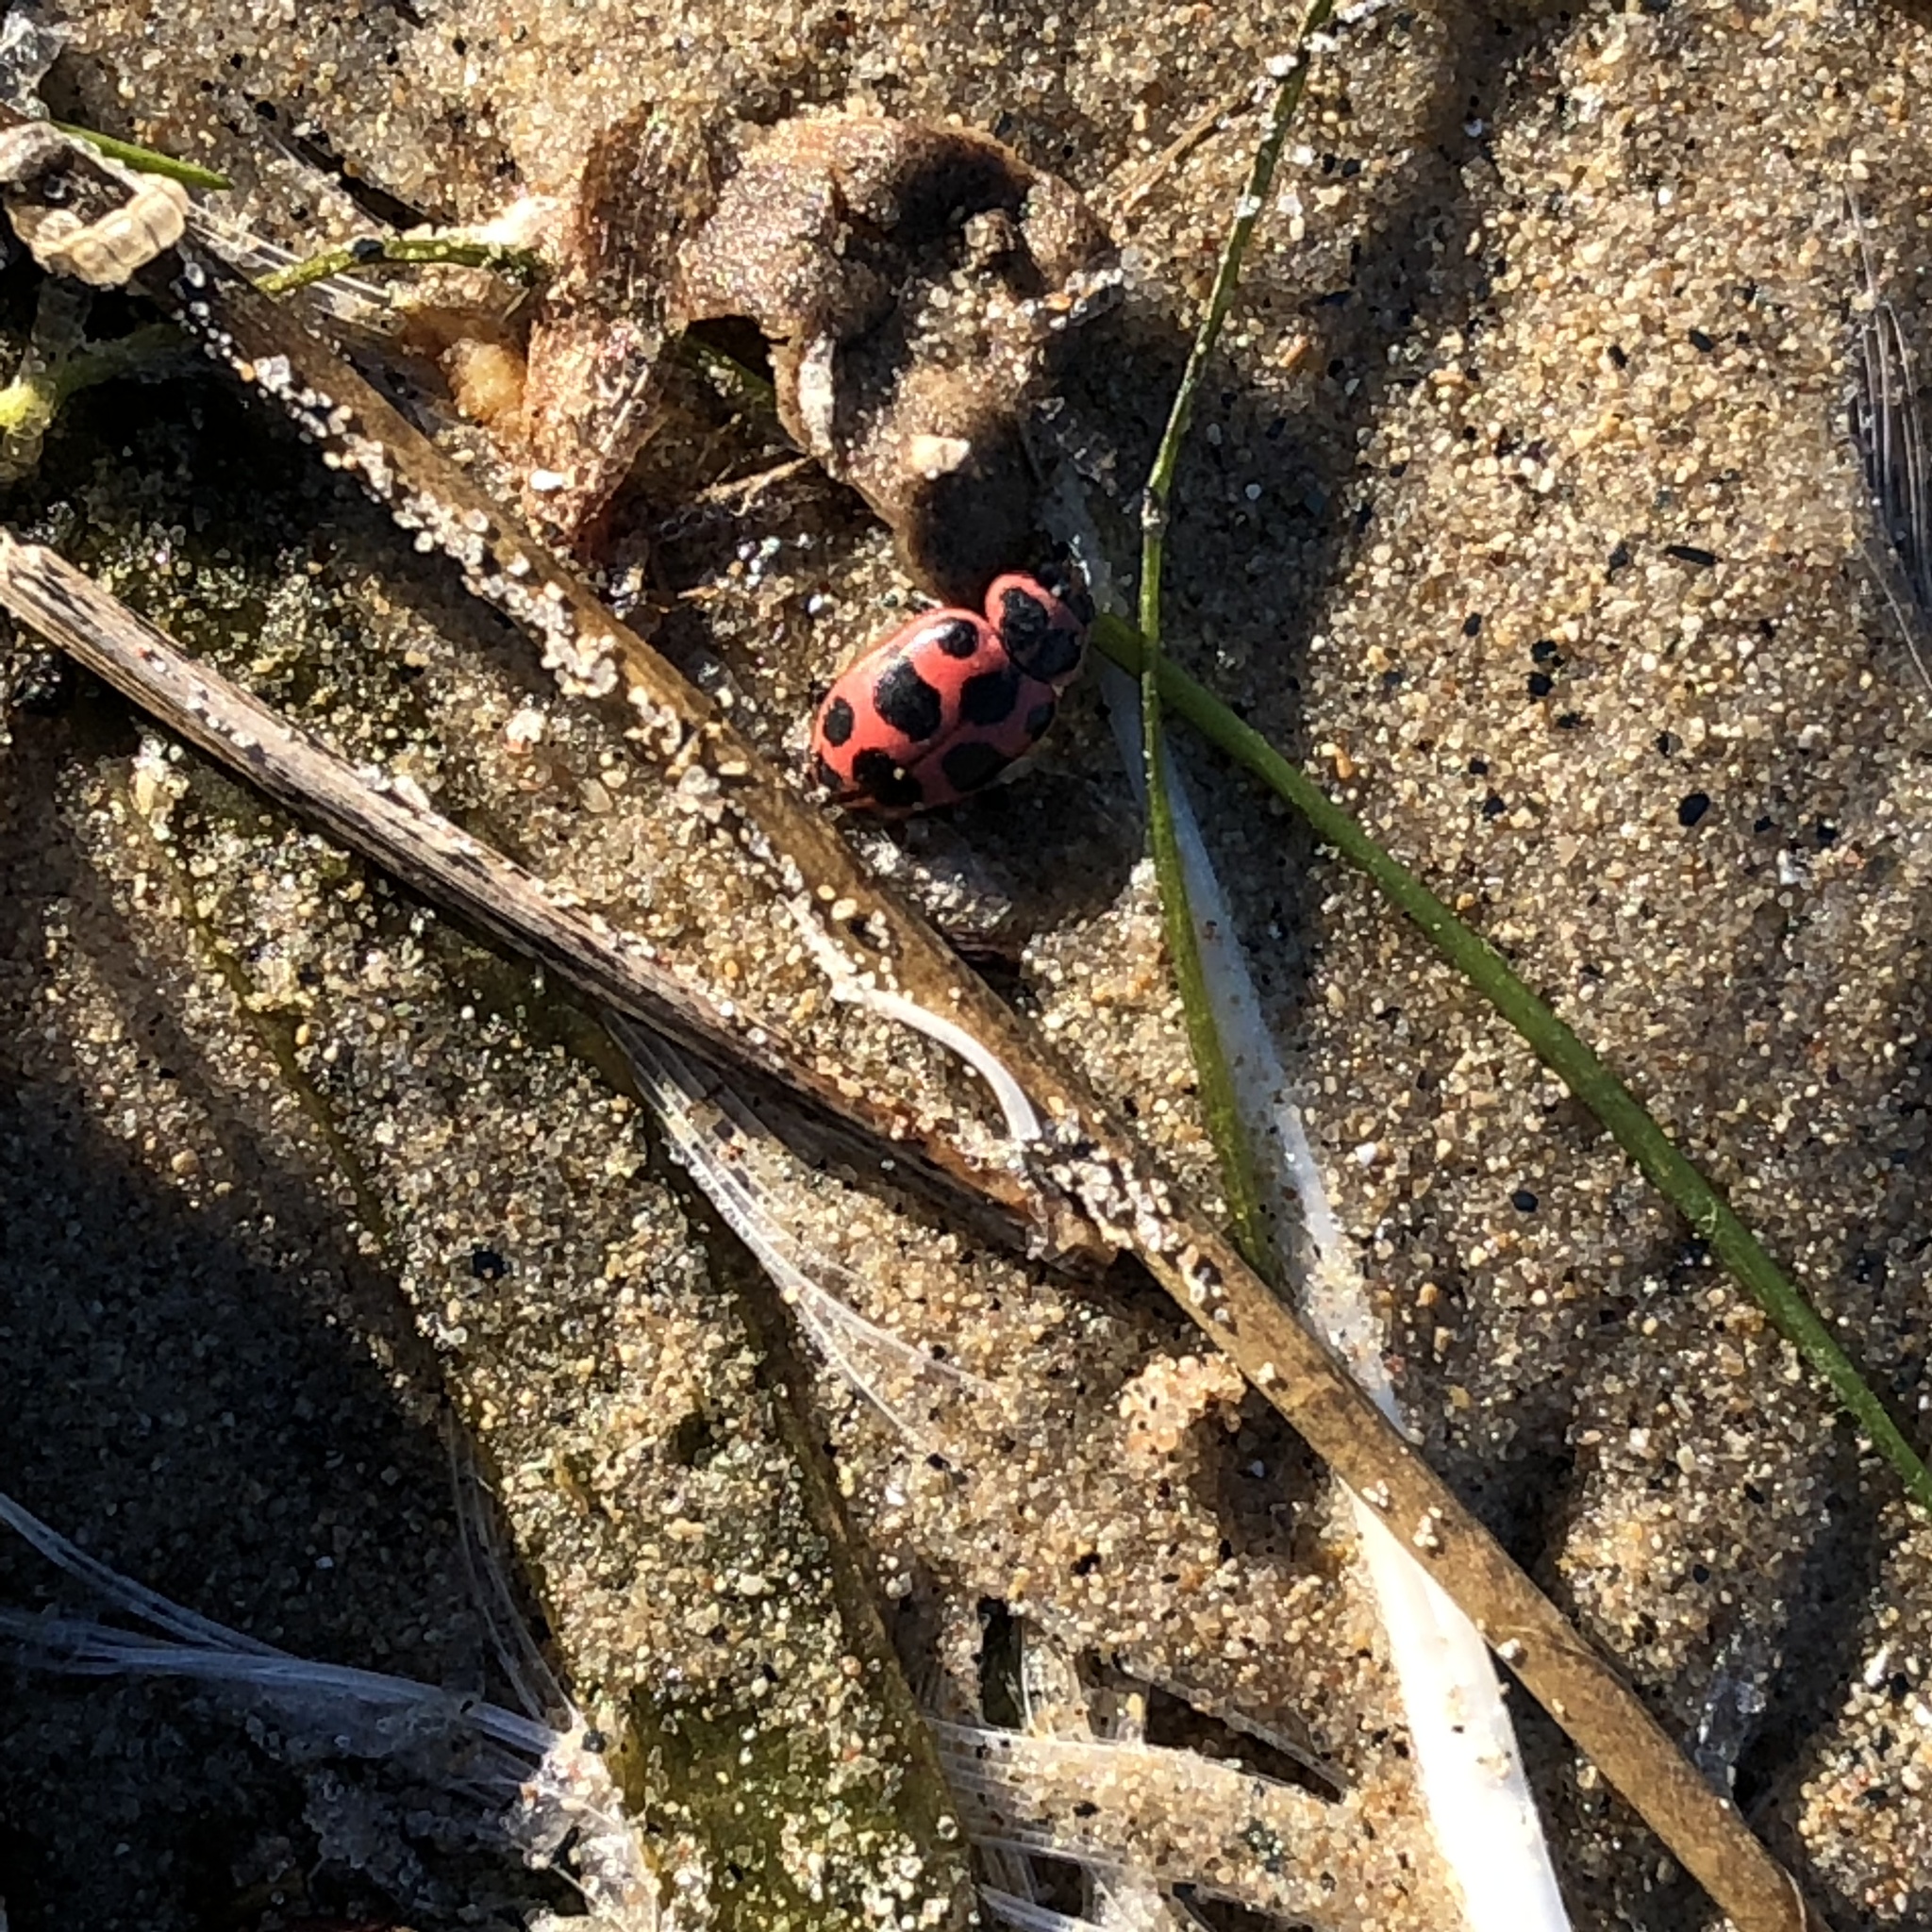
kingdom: Animalia
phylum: Arthropoda
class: Insecta
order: Coleoptera
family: Coccinellidae
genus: Coleomegilla
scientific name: Coleomegilla maculata
